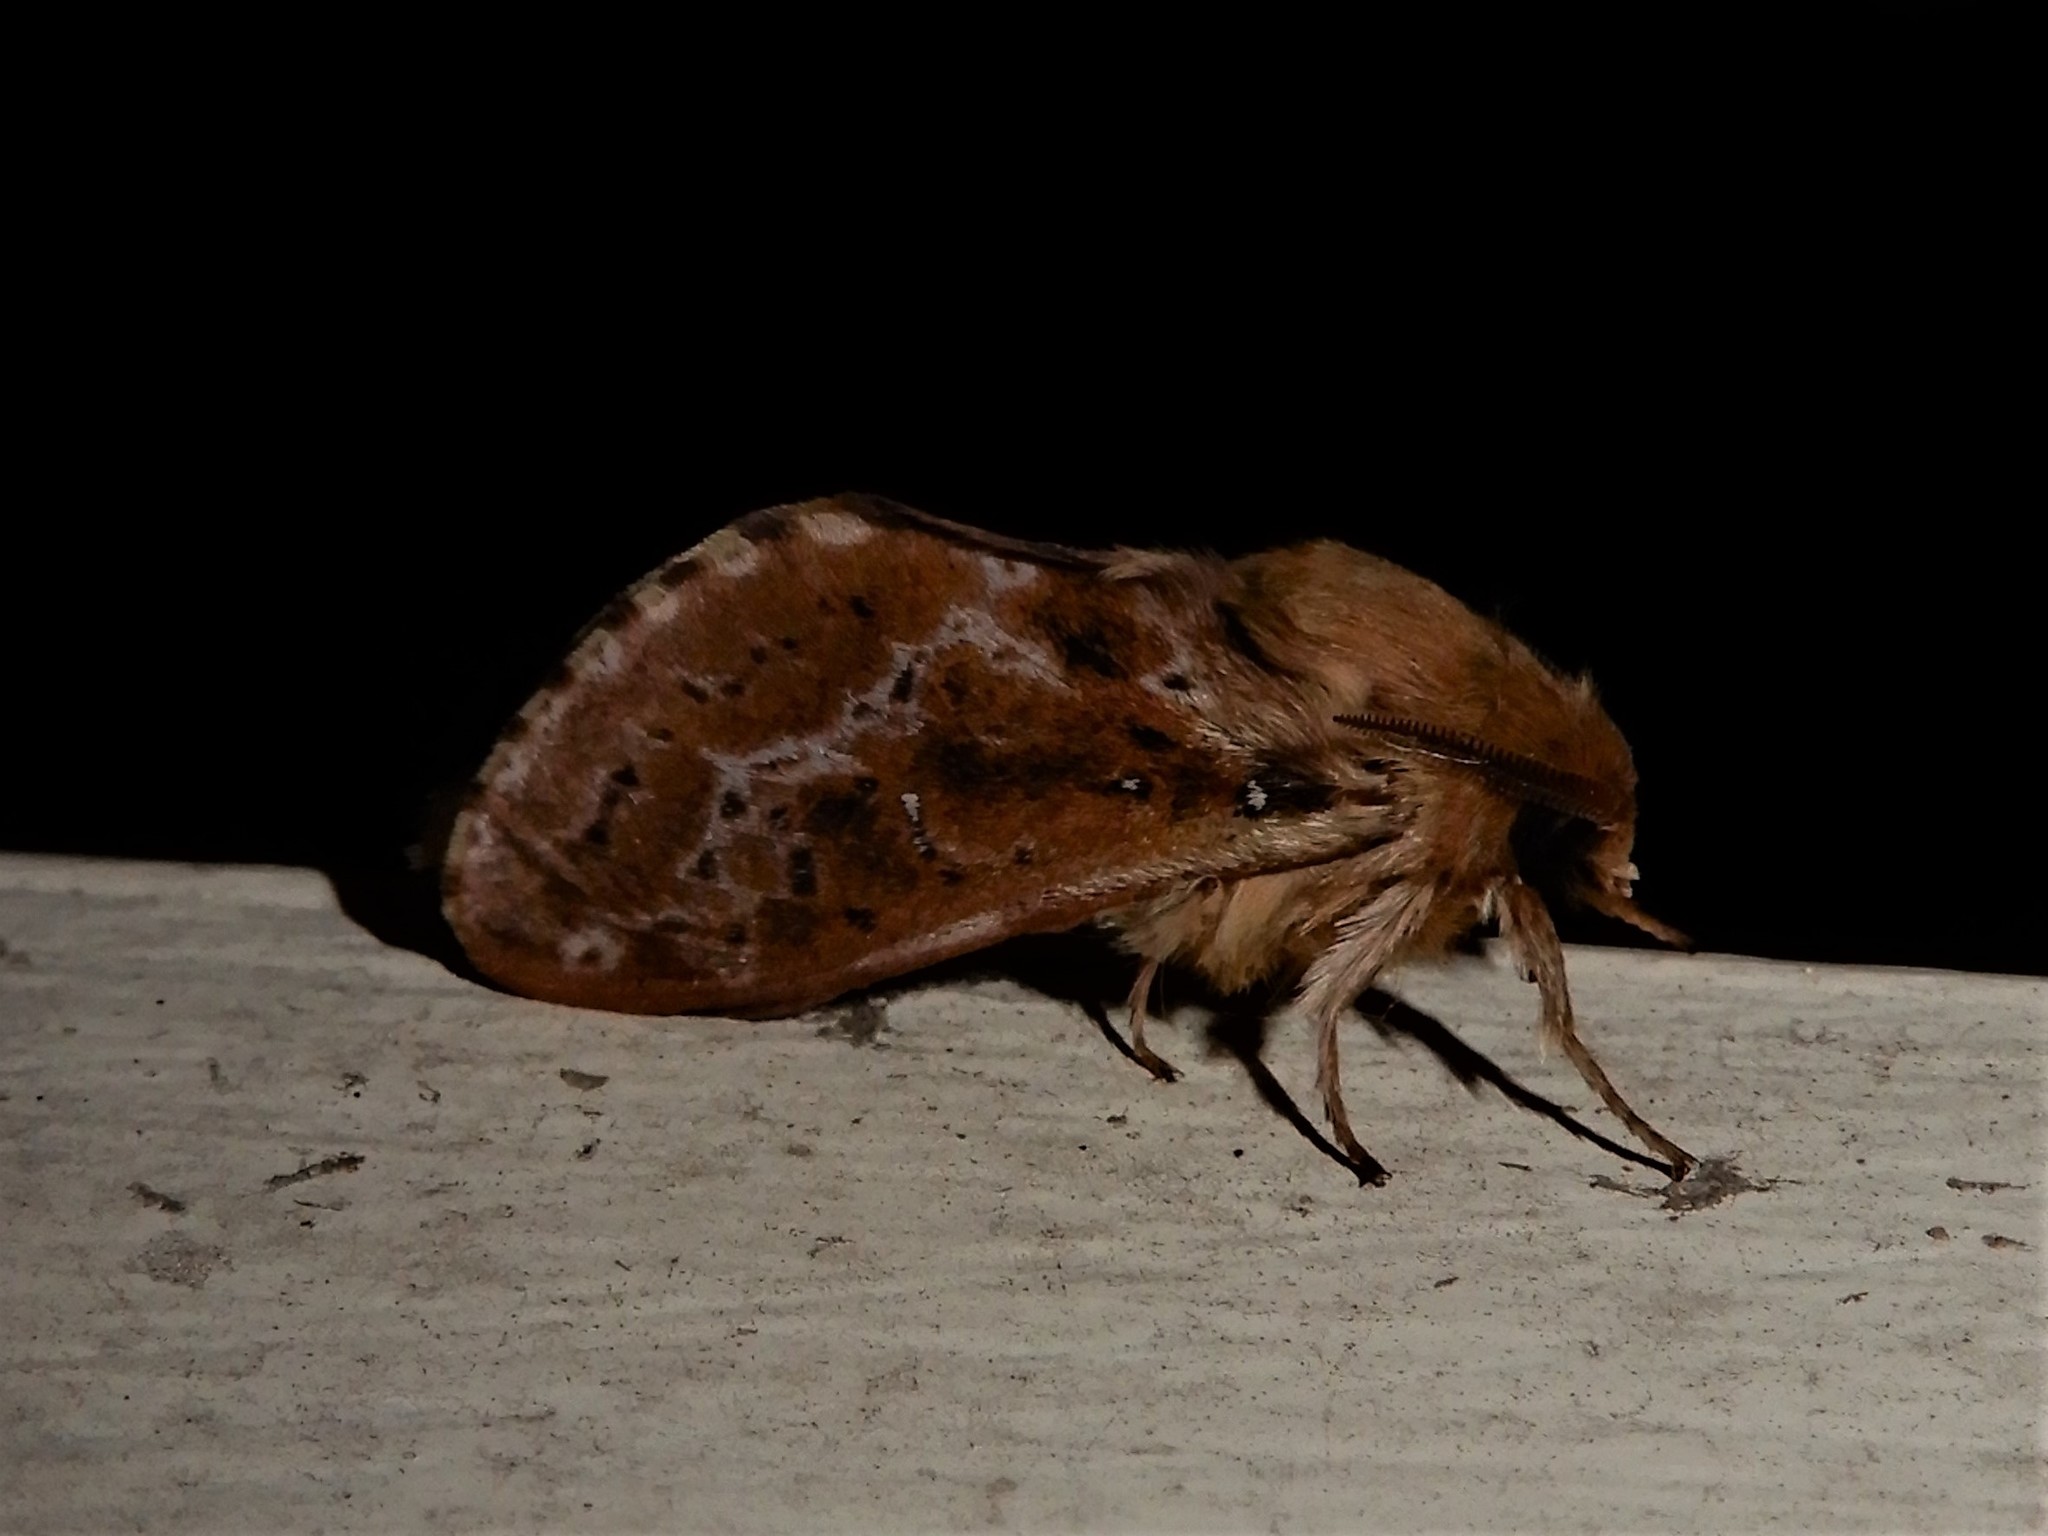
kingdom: Animalia
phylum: Arthropoda
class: Insecta
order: Lepidoptera
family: Hepialidae
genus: Wiseana
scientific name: Wiseana cervinata
